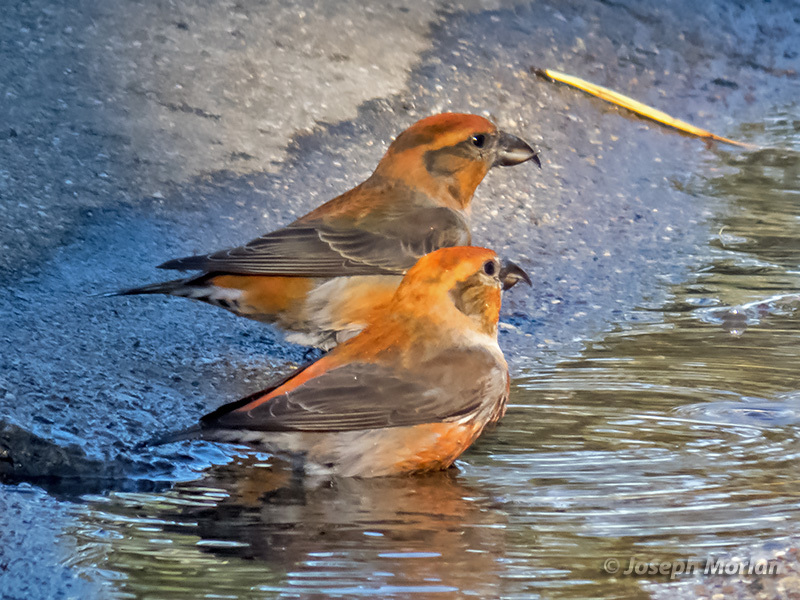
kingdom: Animalia
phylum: Chordata
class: Aves
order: Passeriformes
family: Fringillidae
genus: Loxia
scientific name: Loxia curvirostra
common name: Red crossbill
